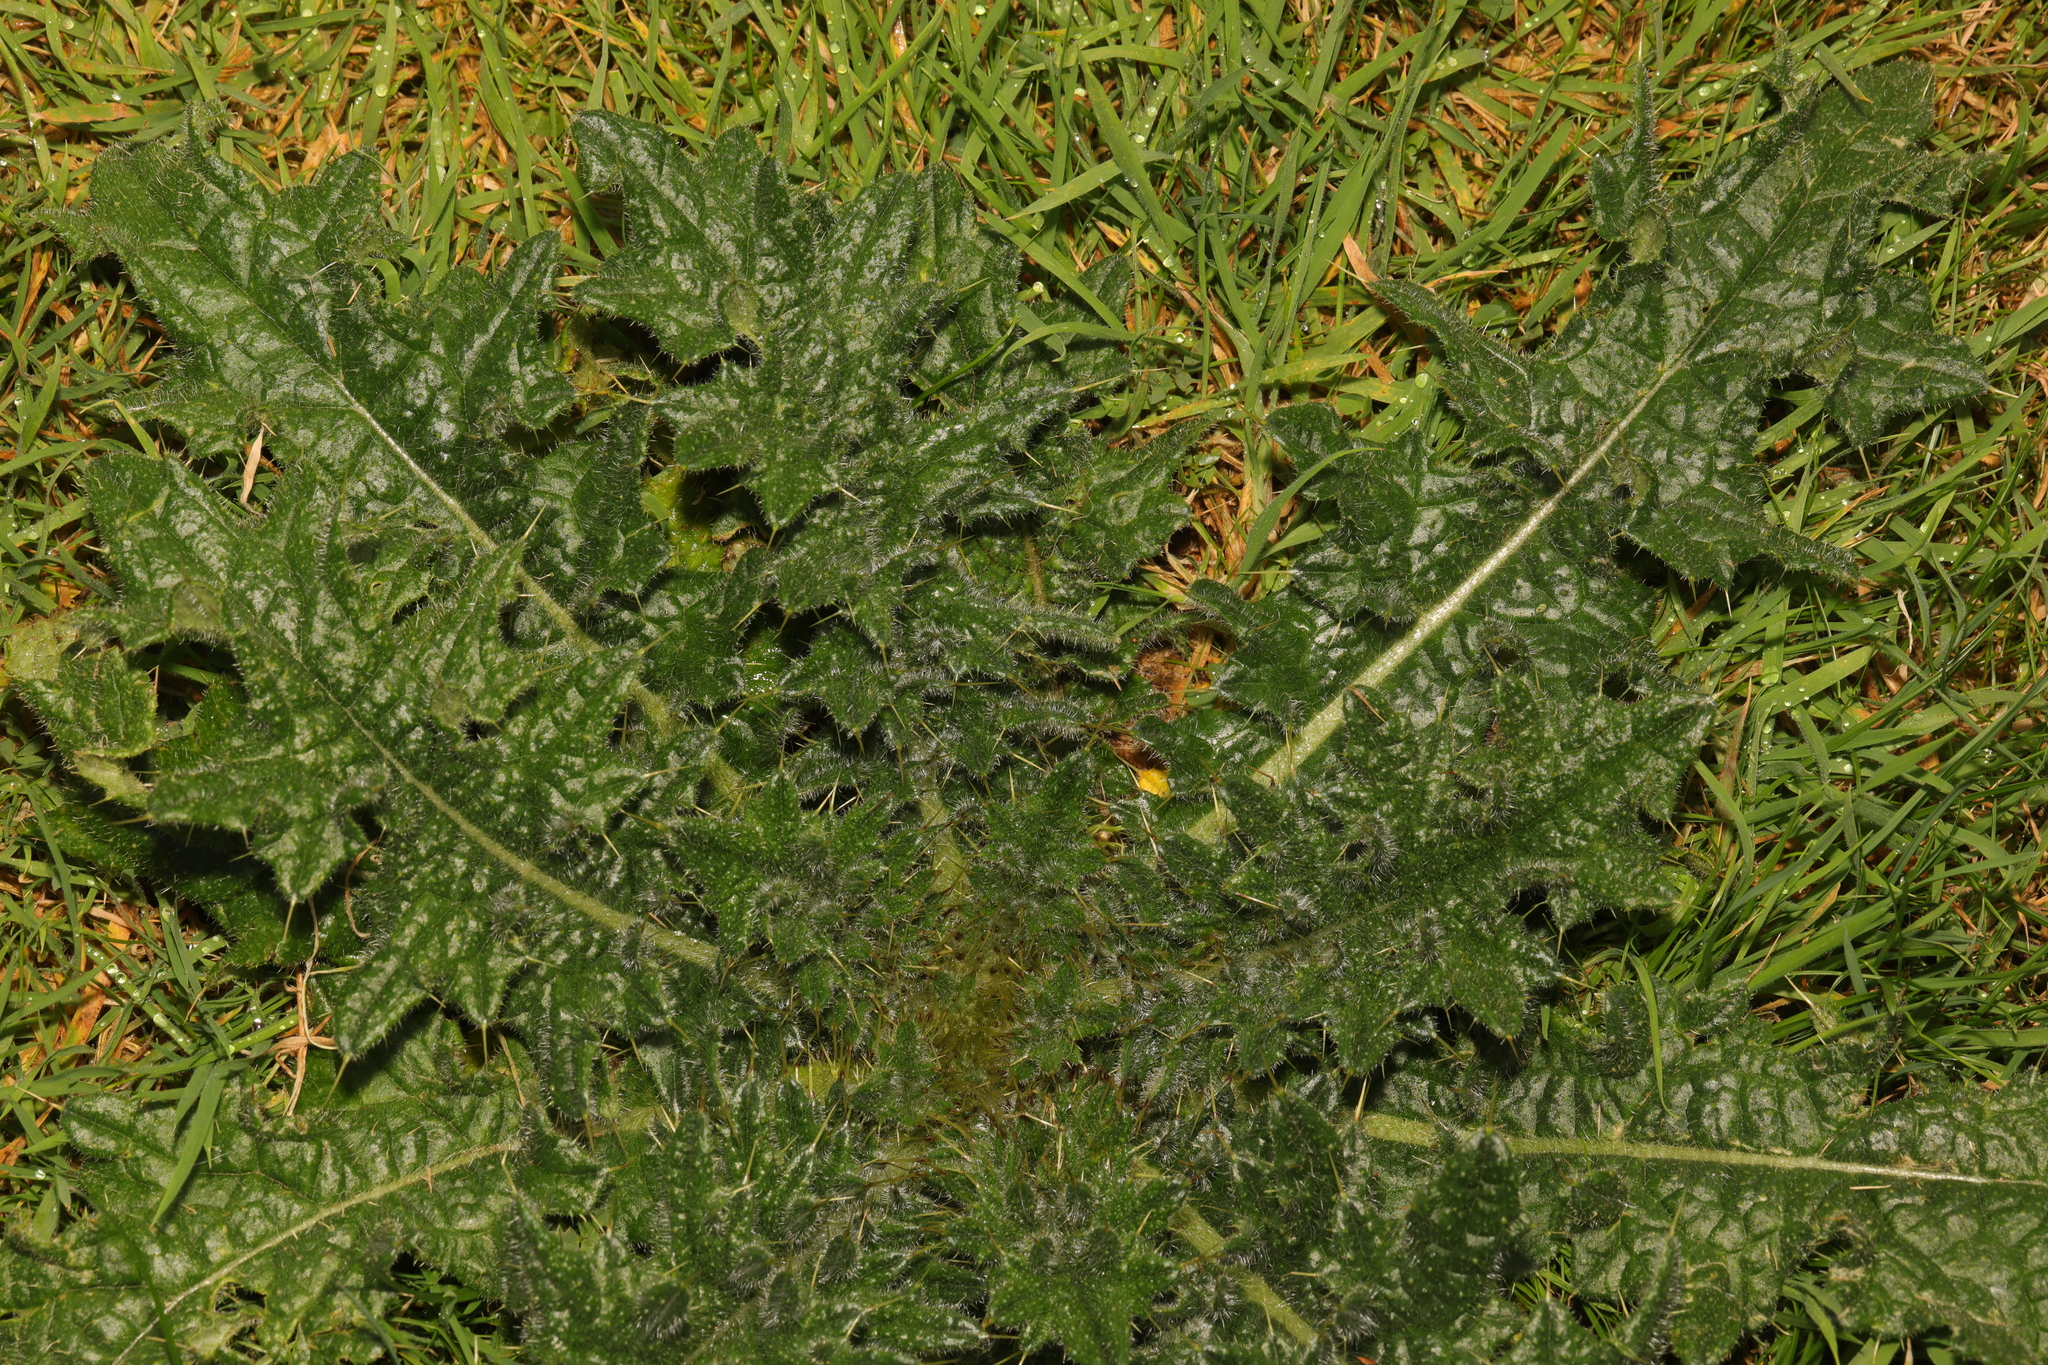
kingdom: Plantae
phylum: Tracheophyta
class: Magnoliopsida
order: Asterales
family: Asteraceae
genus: Cirsium
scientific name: Cirsium vulgare
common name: Bull thistle
